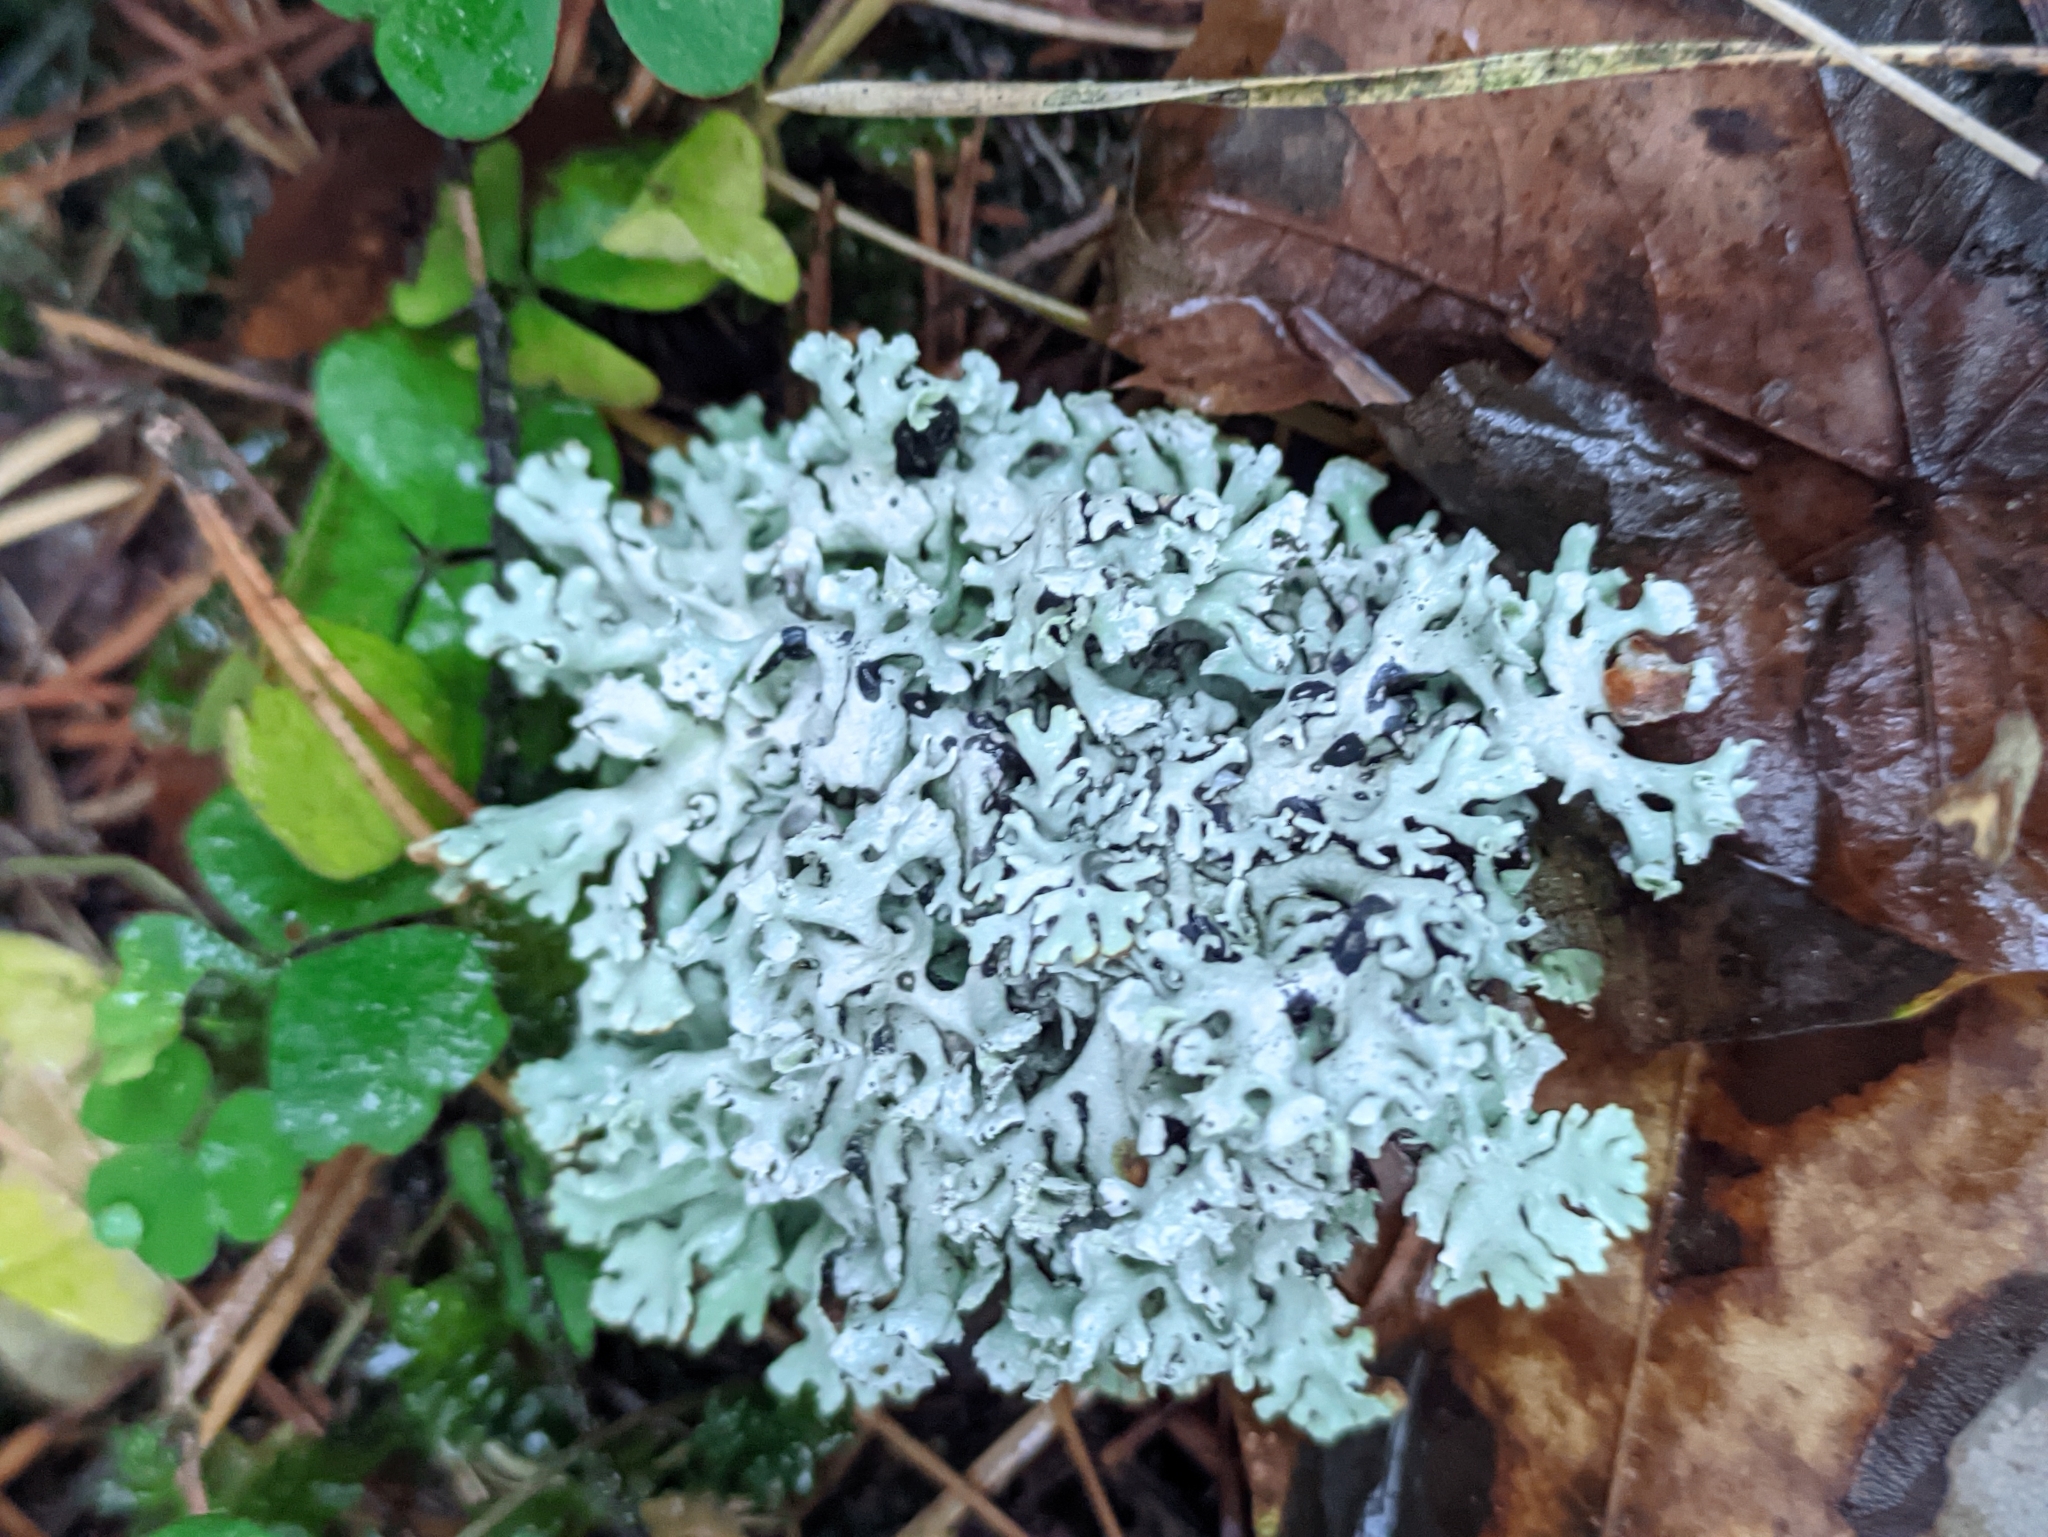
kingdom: Fungi
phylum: Ascomycota
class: Lecanoromycetes
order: Lecanorales
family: Parmeliaceae
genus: Hypogymnia
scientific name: Hypogymnia physodes
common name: Dark crottle
